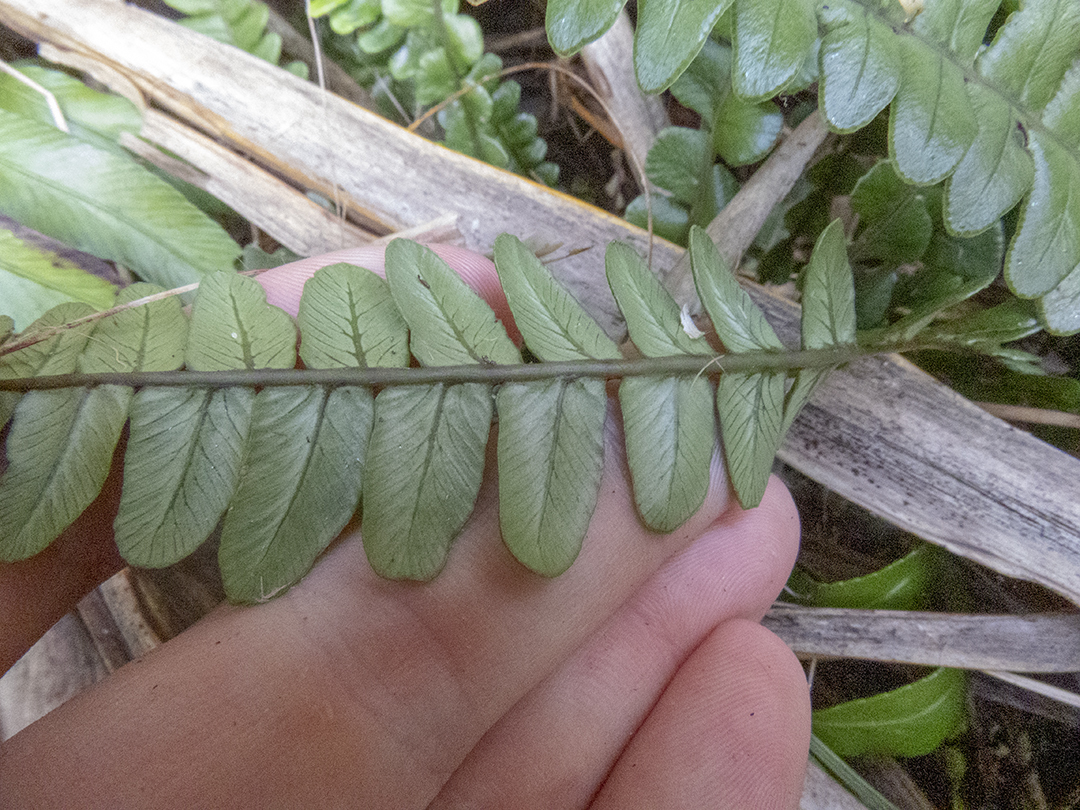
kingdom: Plantae
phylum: Tracheophyta
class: Polypodiopsida
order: Polypodiales
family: Blechnaceae
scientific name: Blechnaceae
